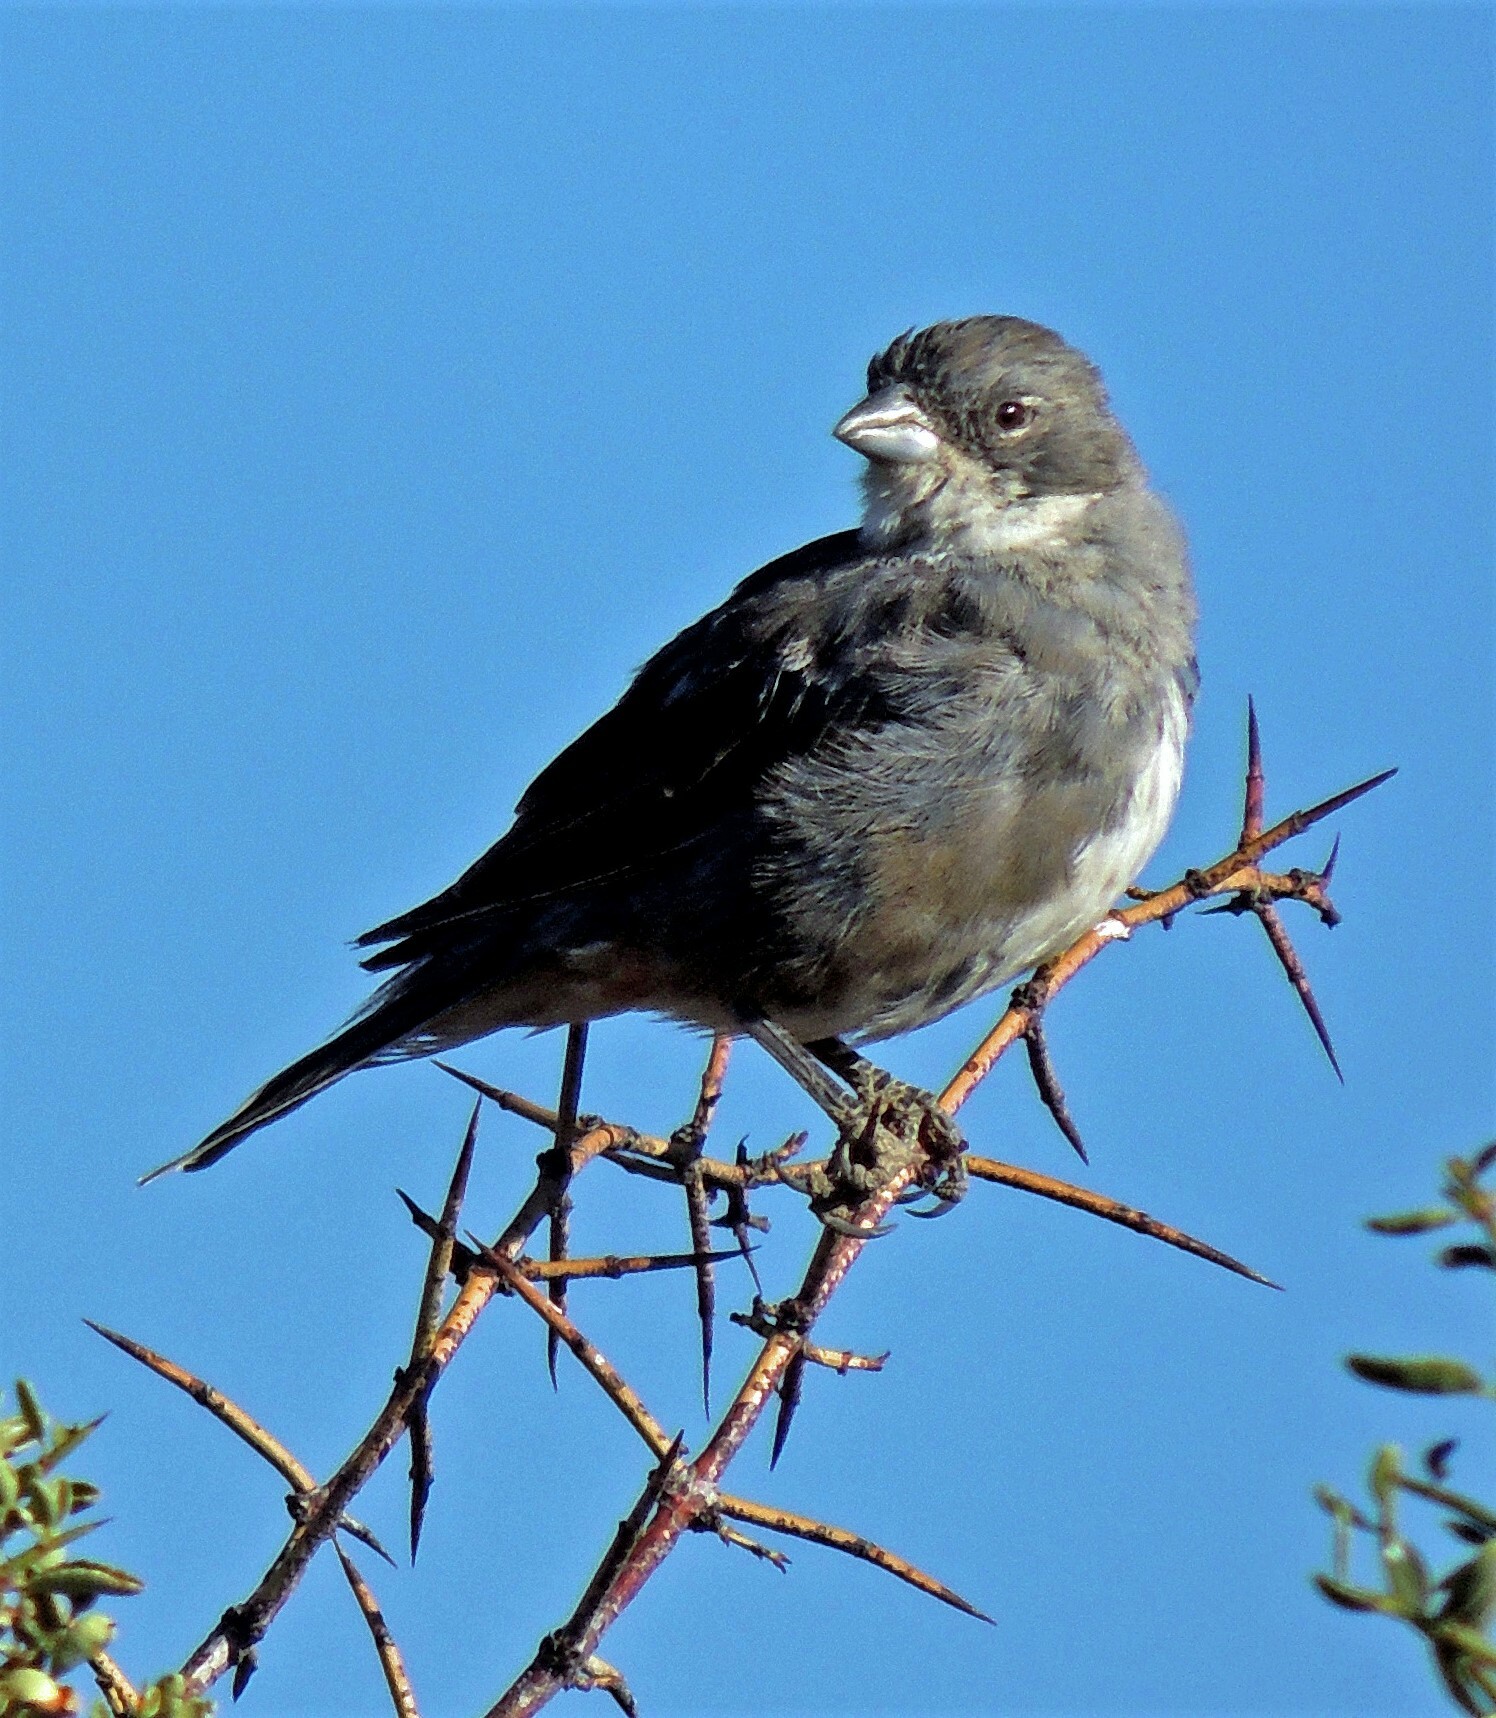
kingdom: Animalia
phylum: Chordata
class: Aves
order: Passeriformes
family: Thraupidae
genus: Diuca
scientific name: Diuca diuca
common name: Common diuca finch
